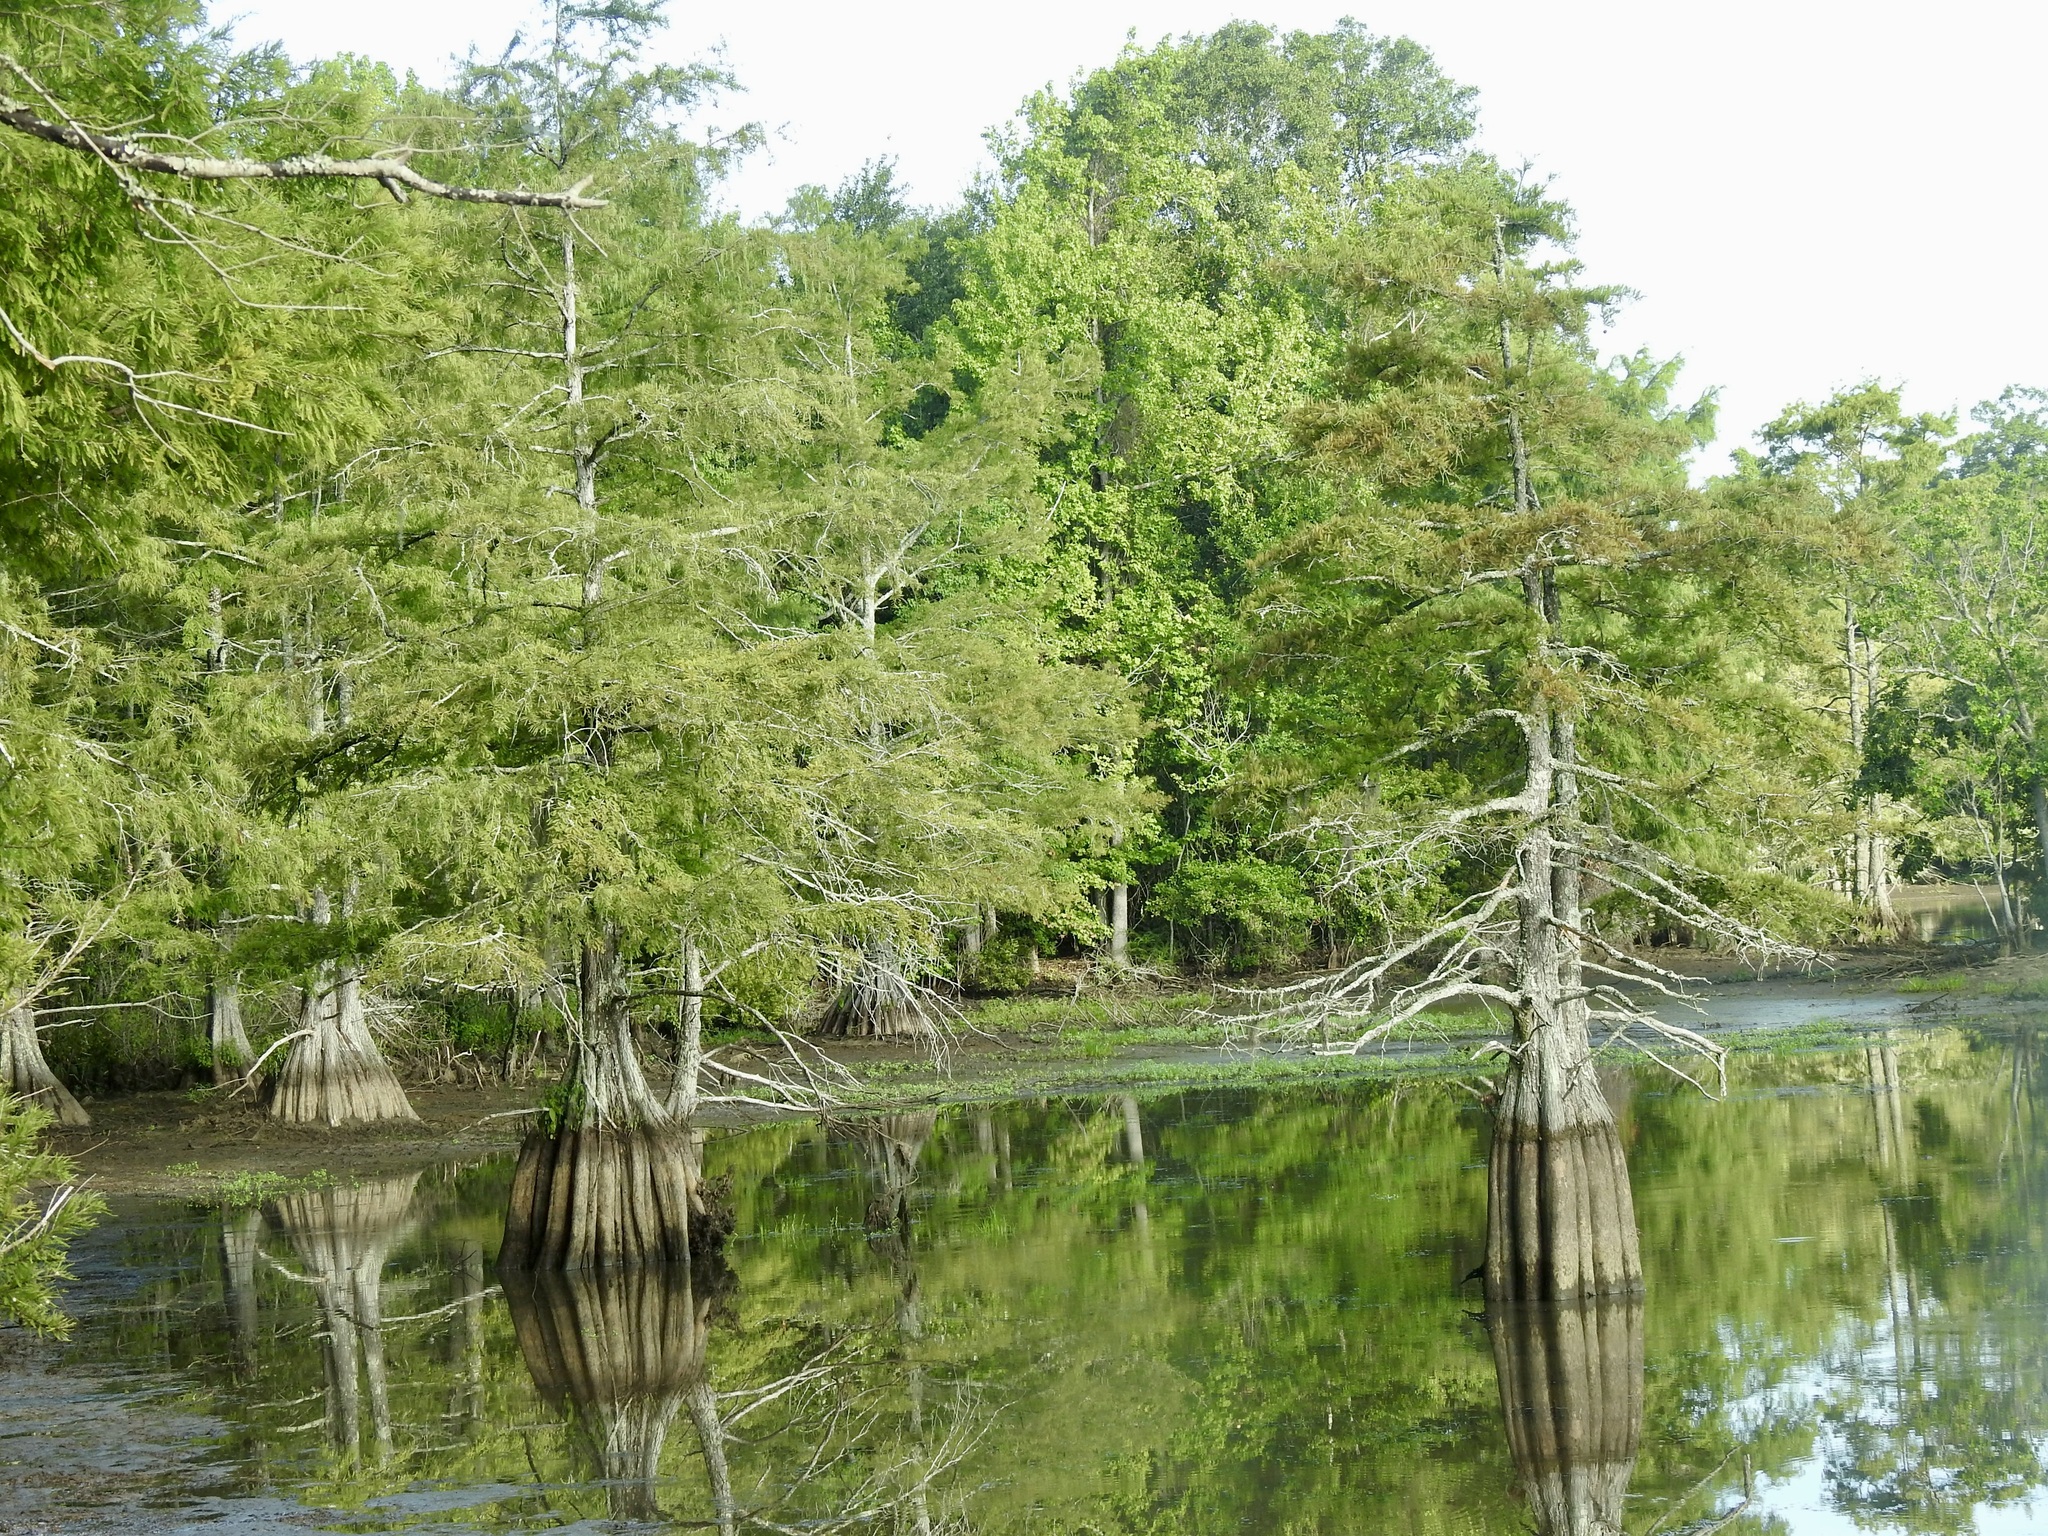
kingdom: Plantae
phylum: Tracheophyta
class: Pinopsida
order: Pinales
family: Cupressaceae
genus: Taxodium
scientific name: Taxodium distichum
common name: Bald cypress
